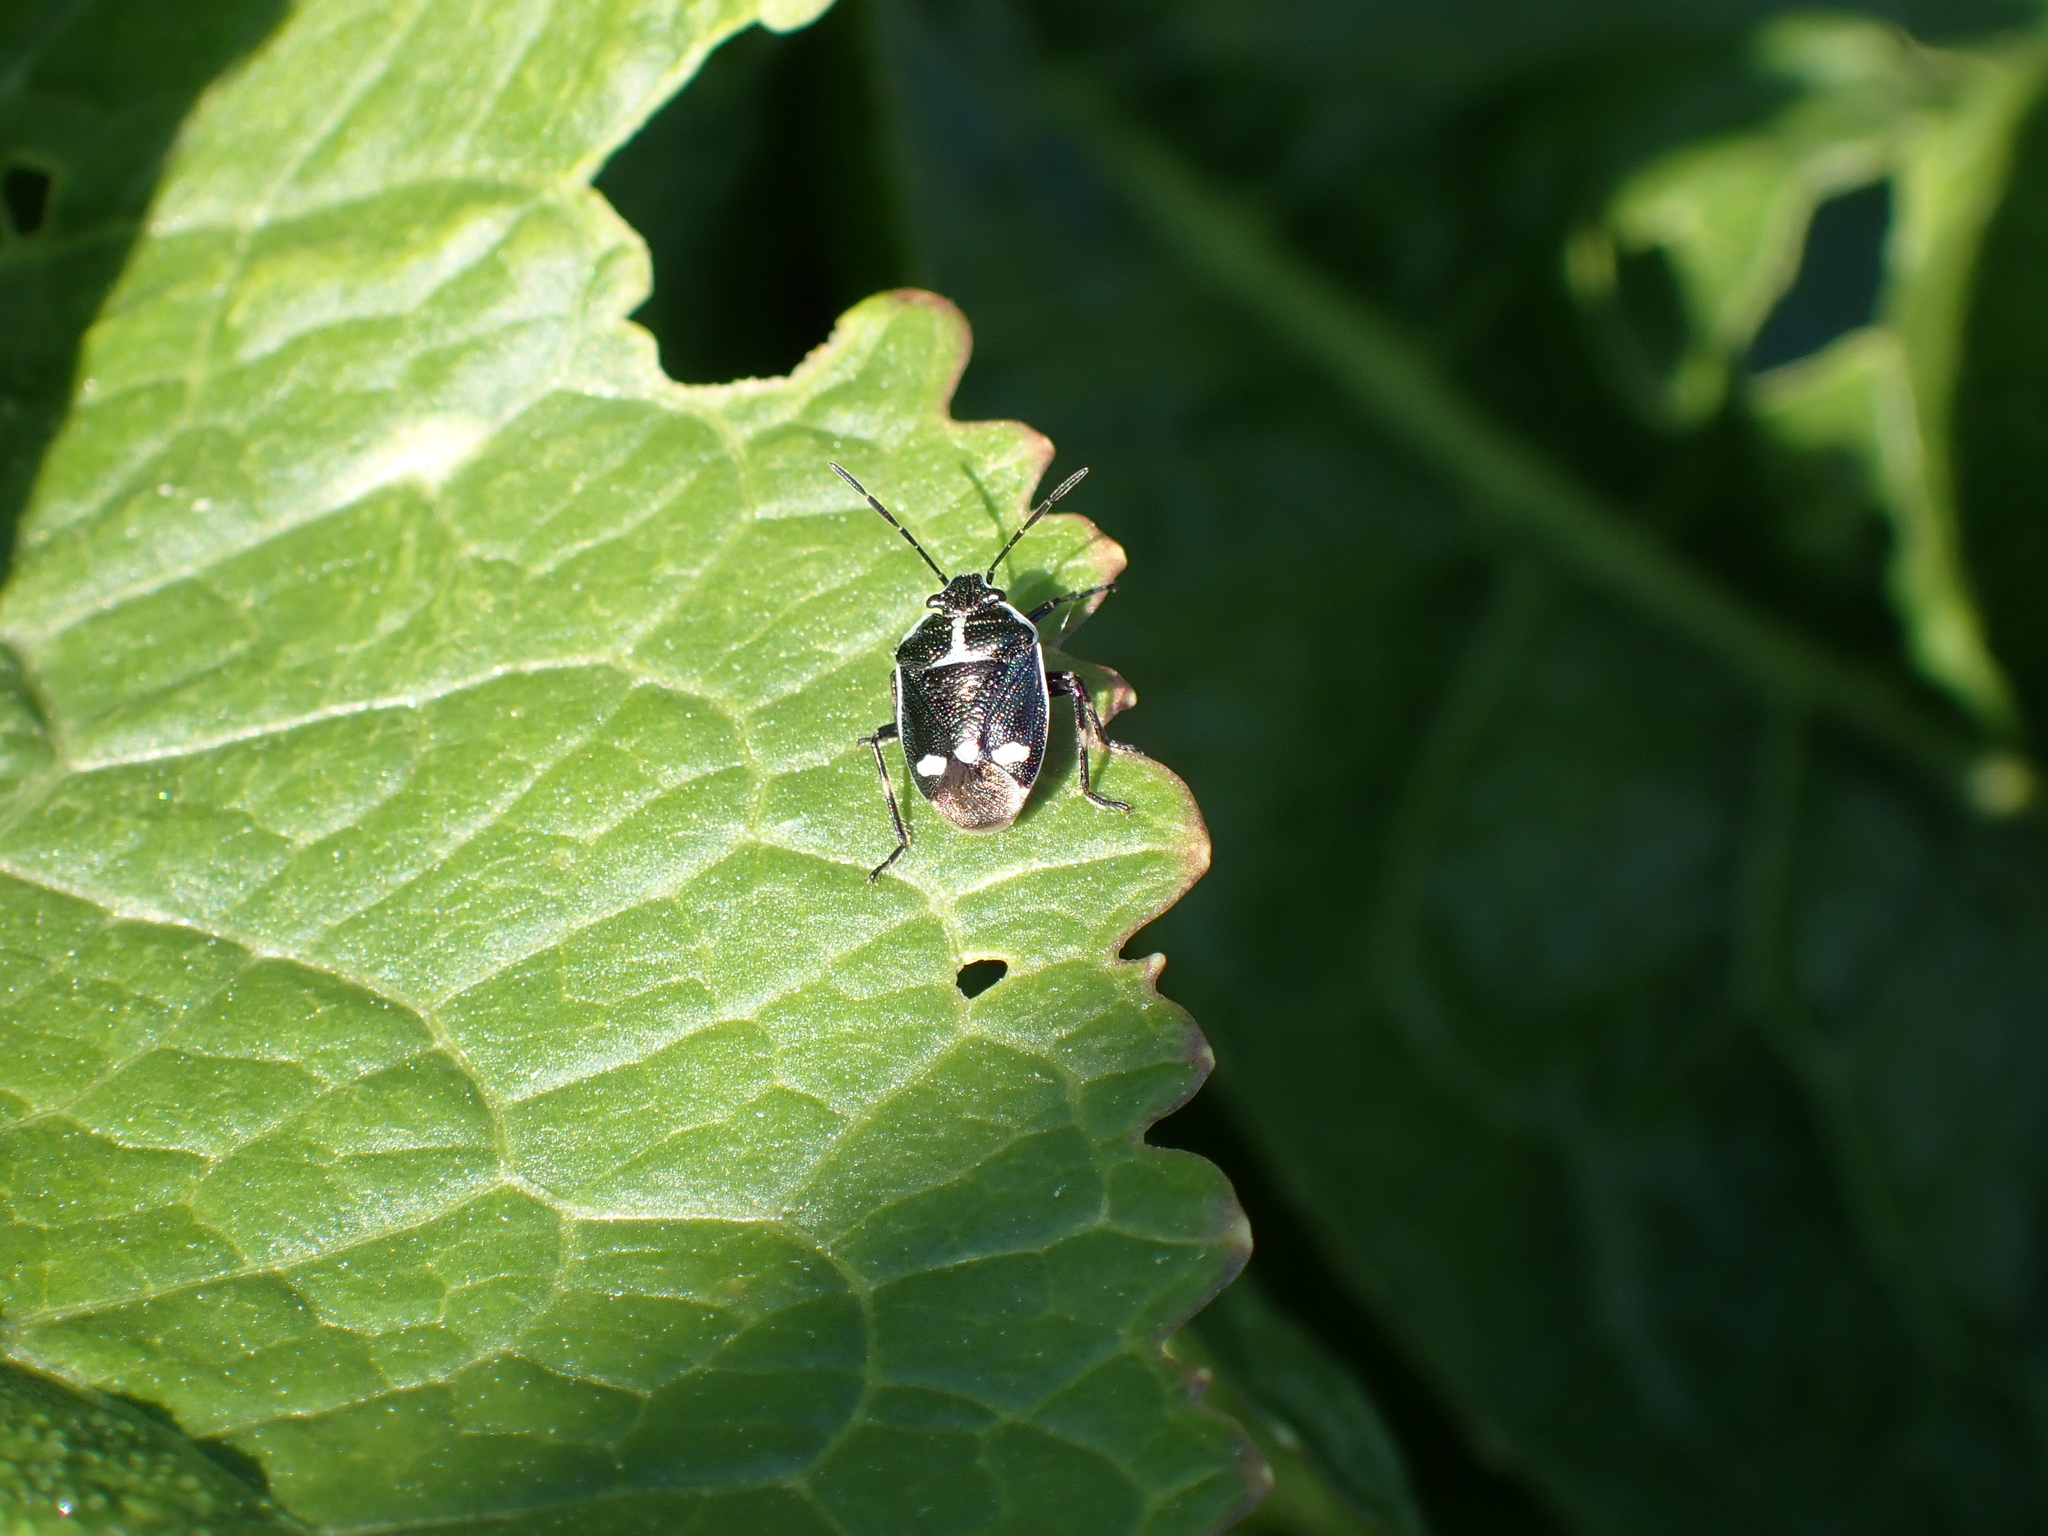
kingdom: Animalia
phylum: Arthropoda
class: Insecta
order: Hemiptera
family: Pentatomidae
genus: Eurydema
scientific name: Eurydema oleracea
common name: Cabbage bug
